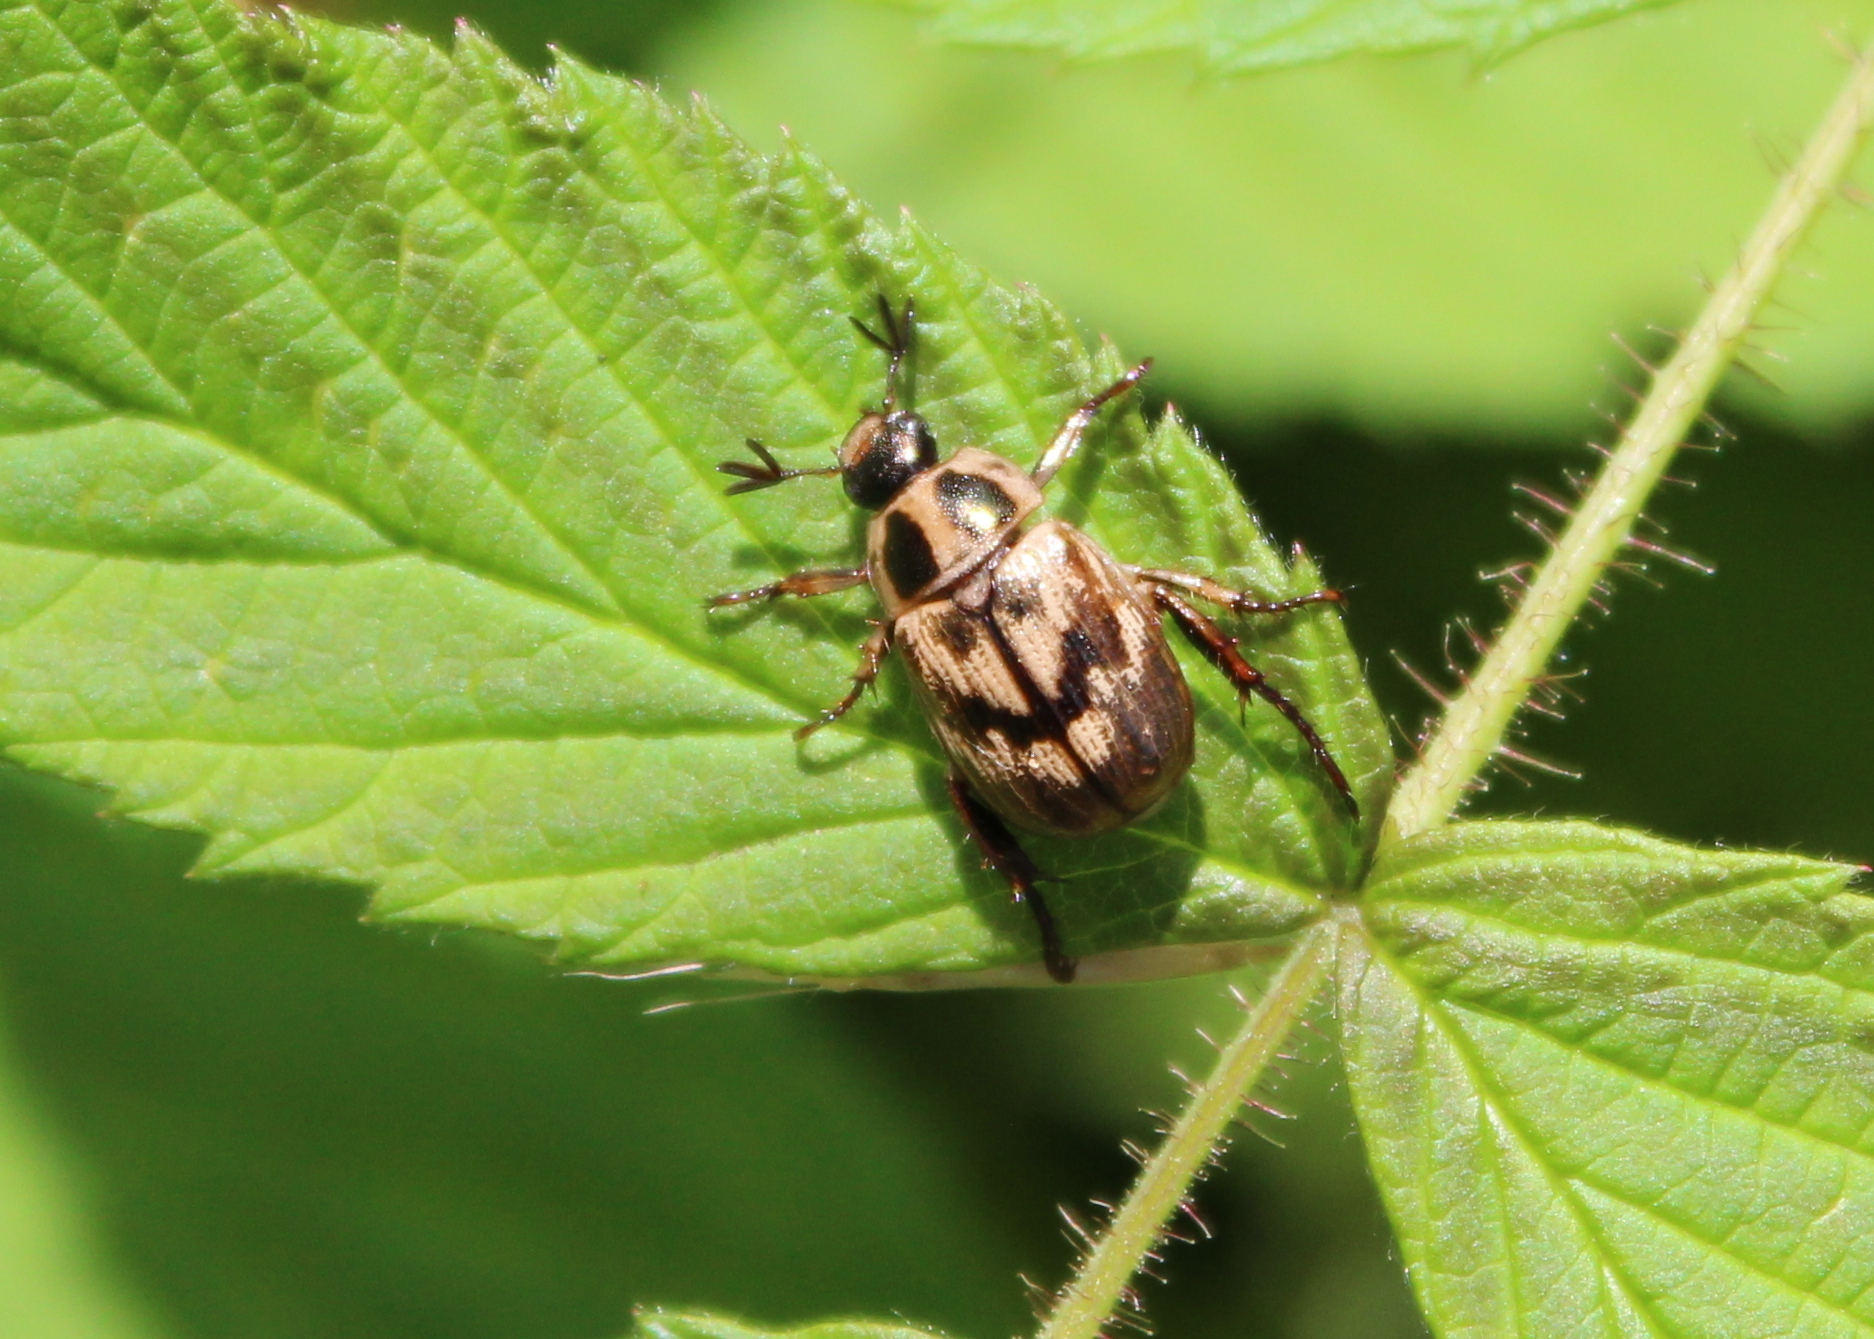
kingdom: Animalia
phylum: Arthropoda
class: Insecta
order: Coleoptera
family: Scarabaeidae
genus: Exomala
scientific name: Exomala orientalis
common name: Oriental beetle
